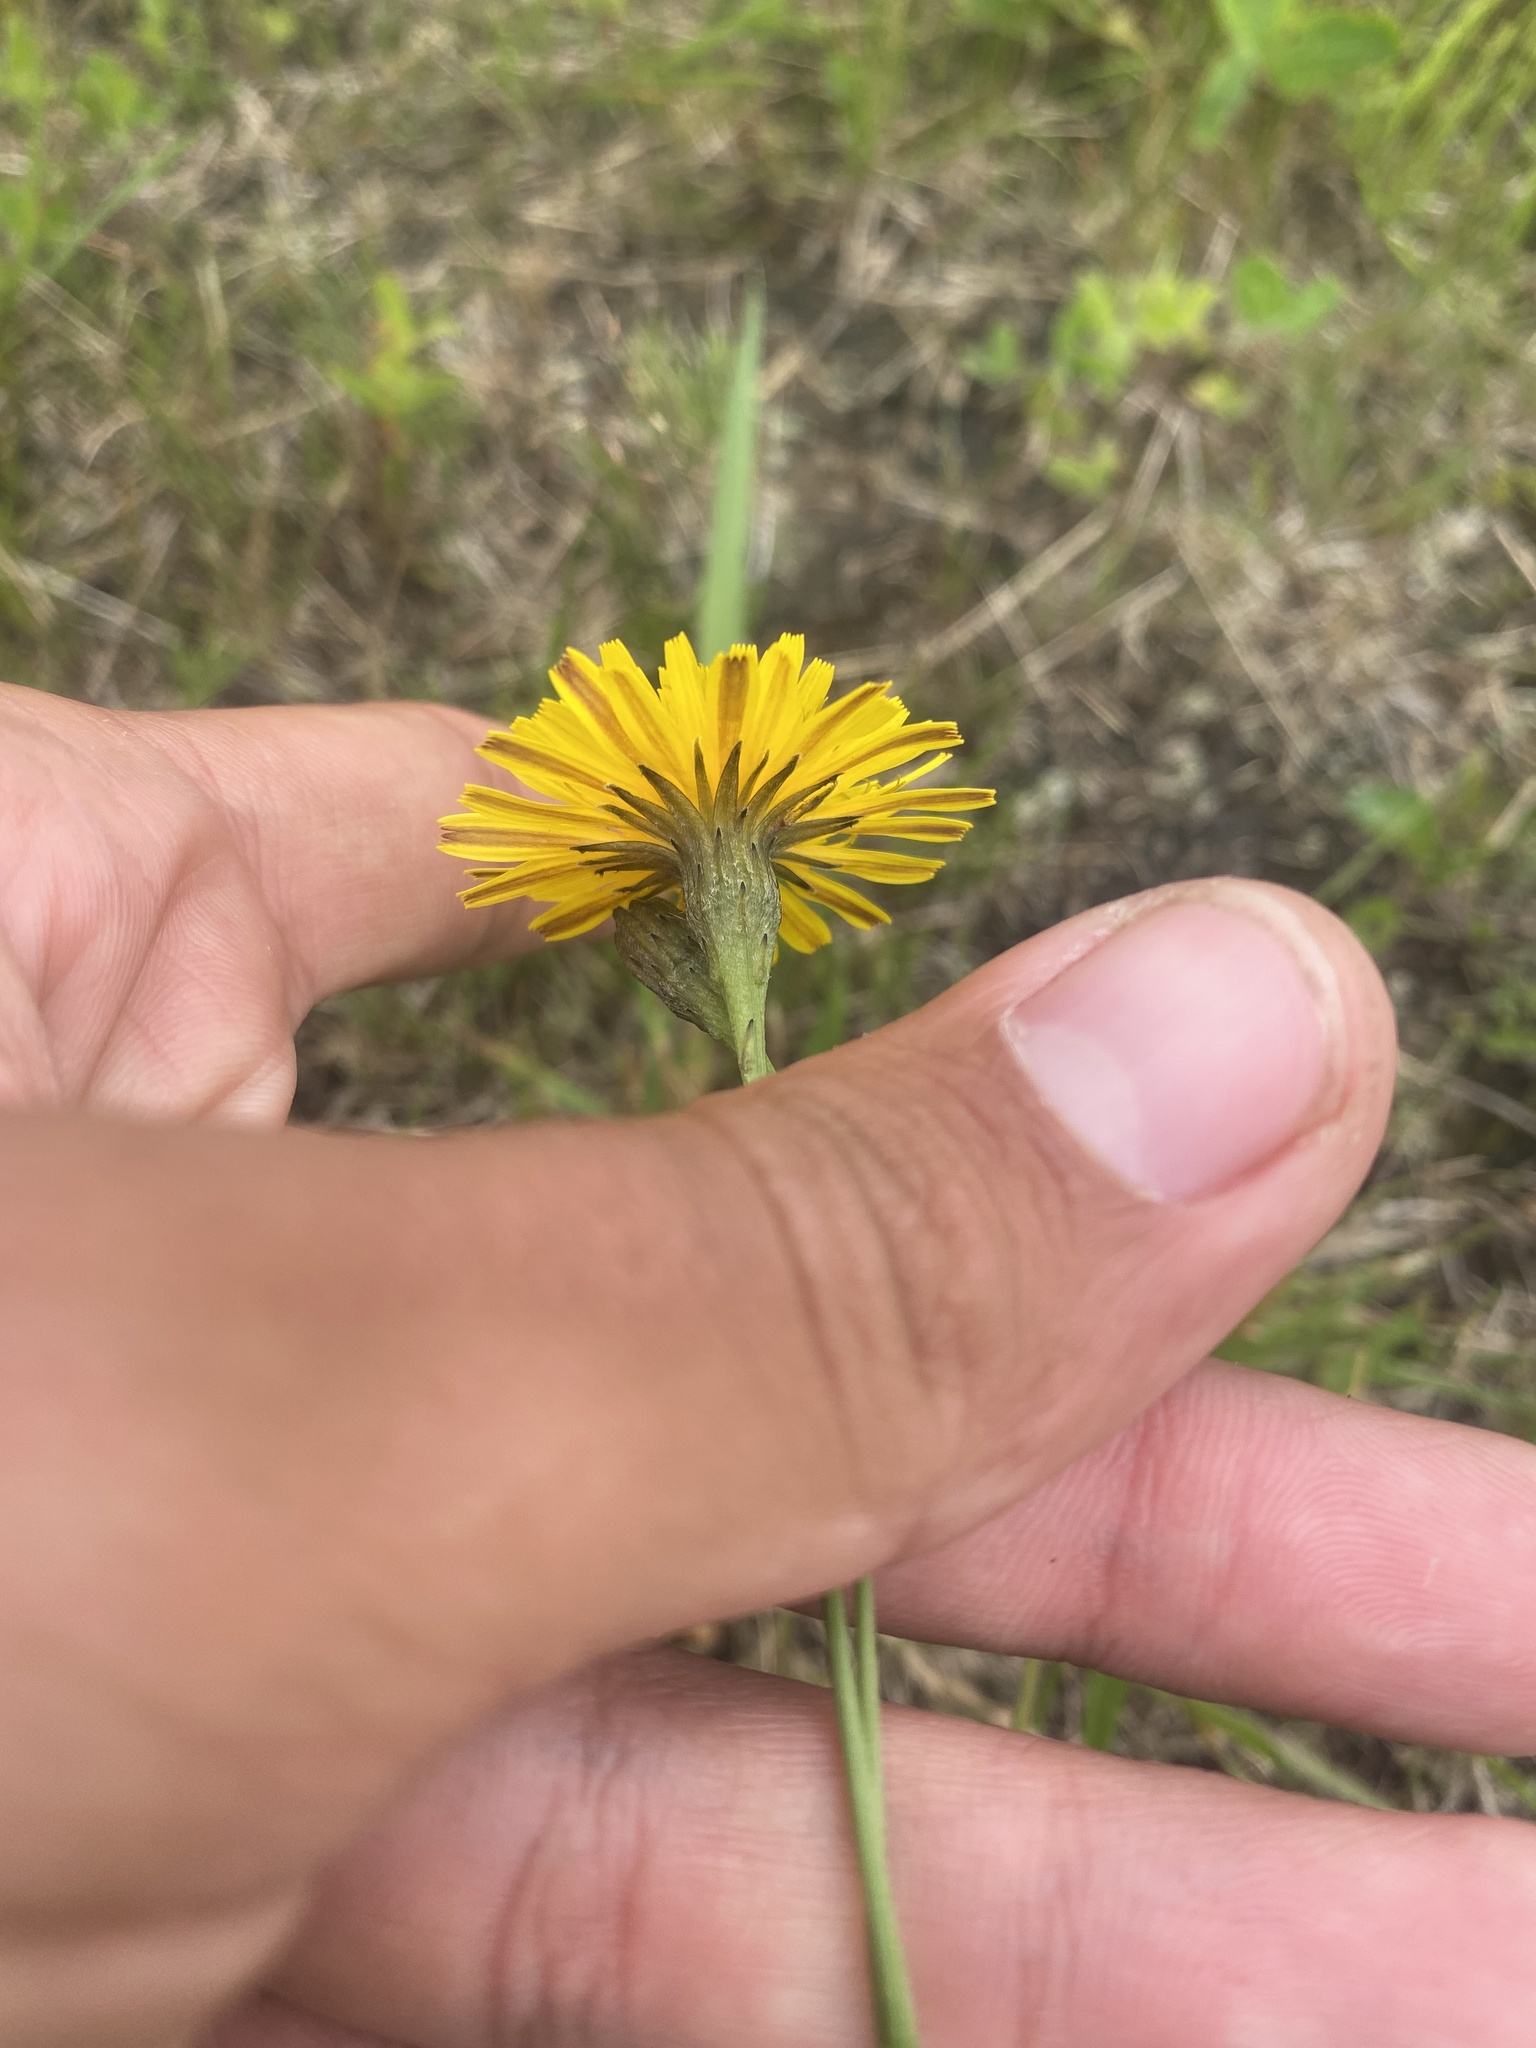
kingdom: Plantae
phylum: Tracheophyta
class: Magnoliopsida
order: Asterales
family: Asteraceae
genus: Scorzoneroides
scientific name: Scorzoneroides autumnalis
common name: Autumn hawkbit
